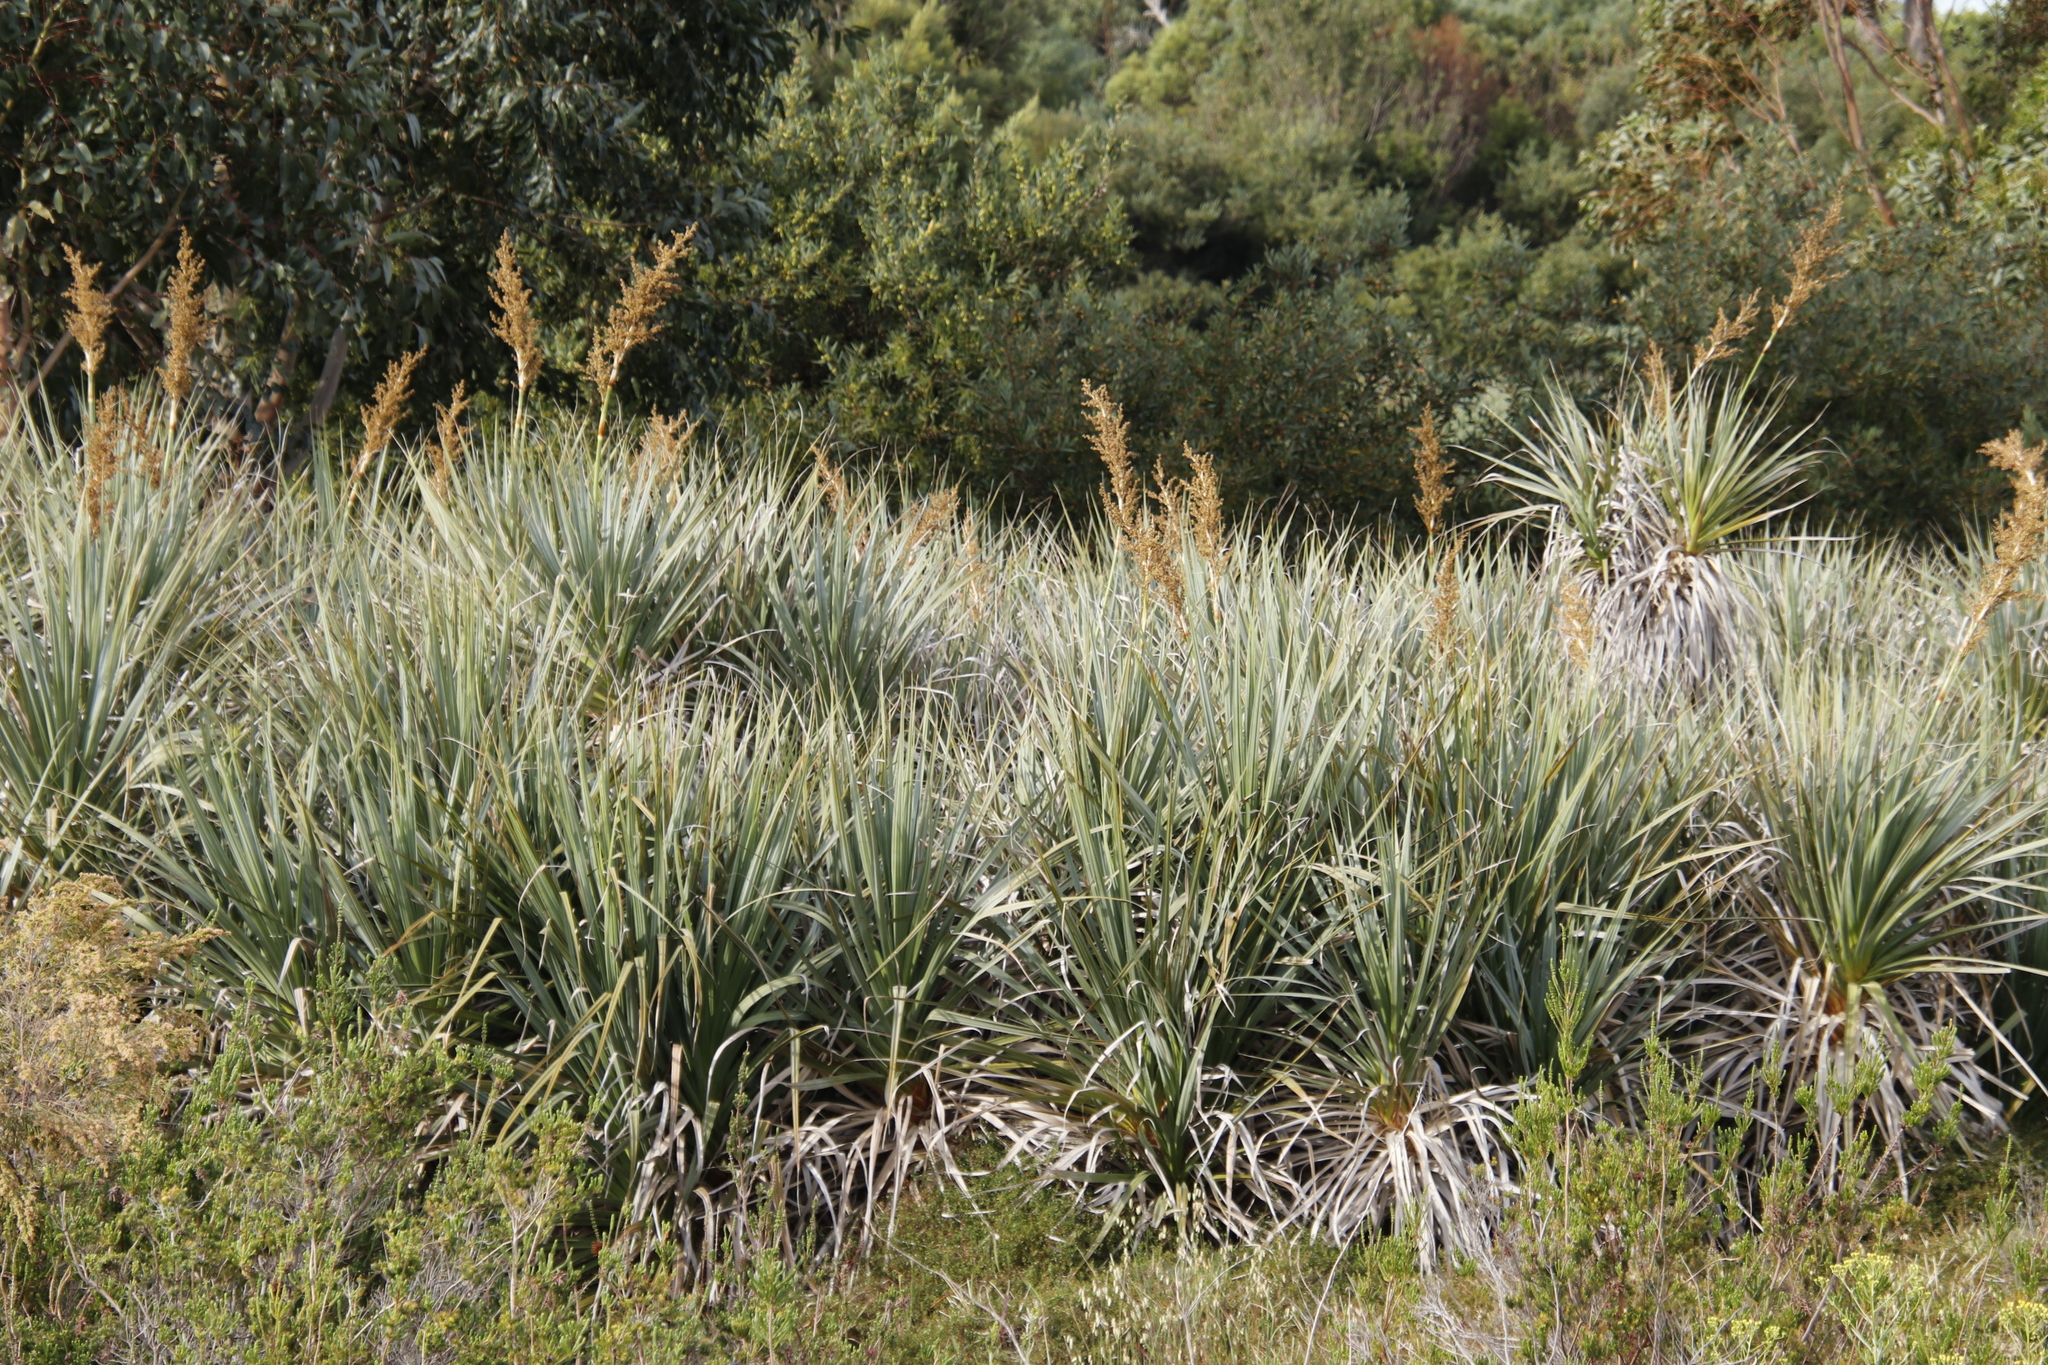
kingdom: Plantae
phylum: Tracheophyta
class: Liliopsida
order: Poales
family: Thurniaceae
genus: Prionium
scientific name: Prionium serratum
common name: Palmiet
